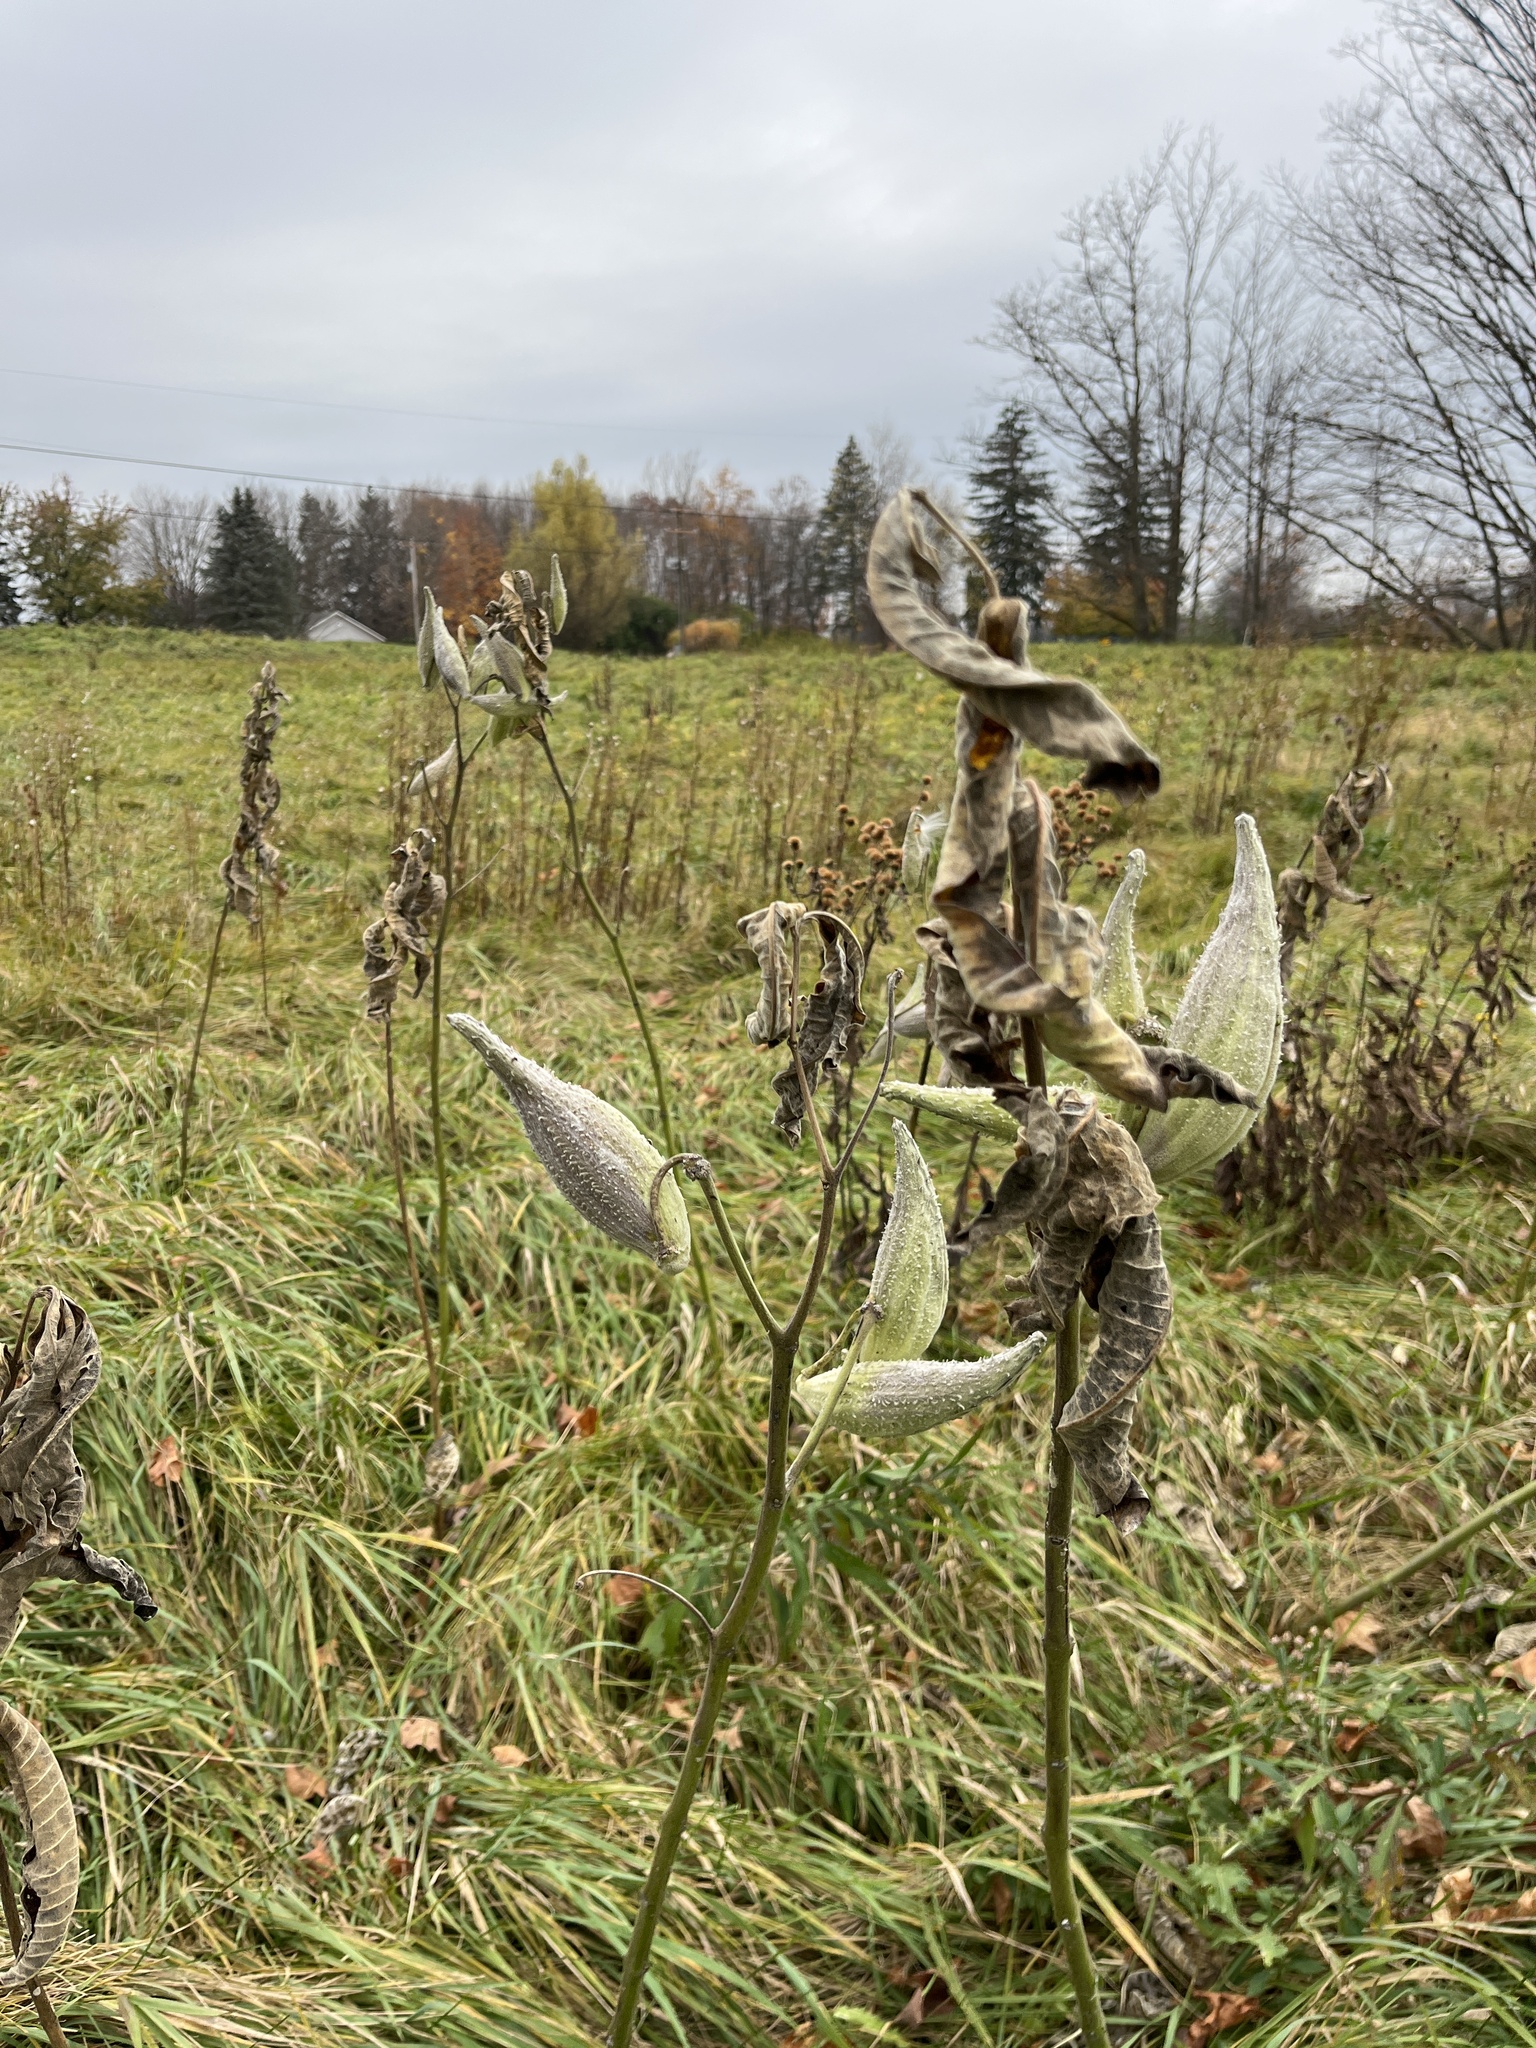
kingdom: Plantae
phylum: Tracheophyta
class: Magnoliopsida
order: Gentianales
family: Apocynaceae
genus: Asclepias
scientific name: Asclepias syriaca
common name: Common milkweed
